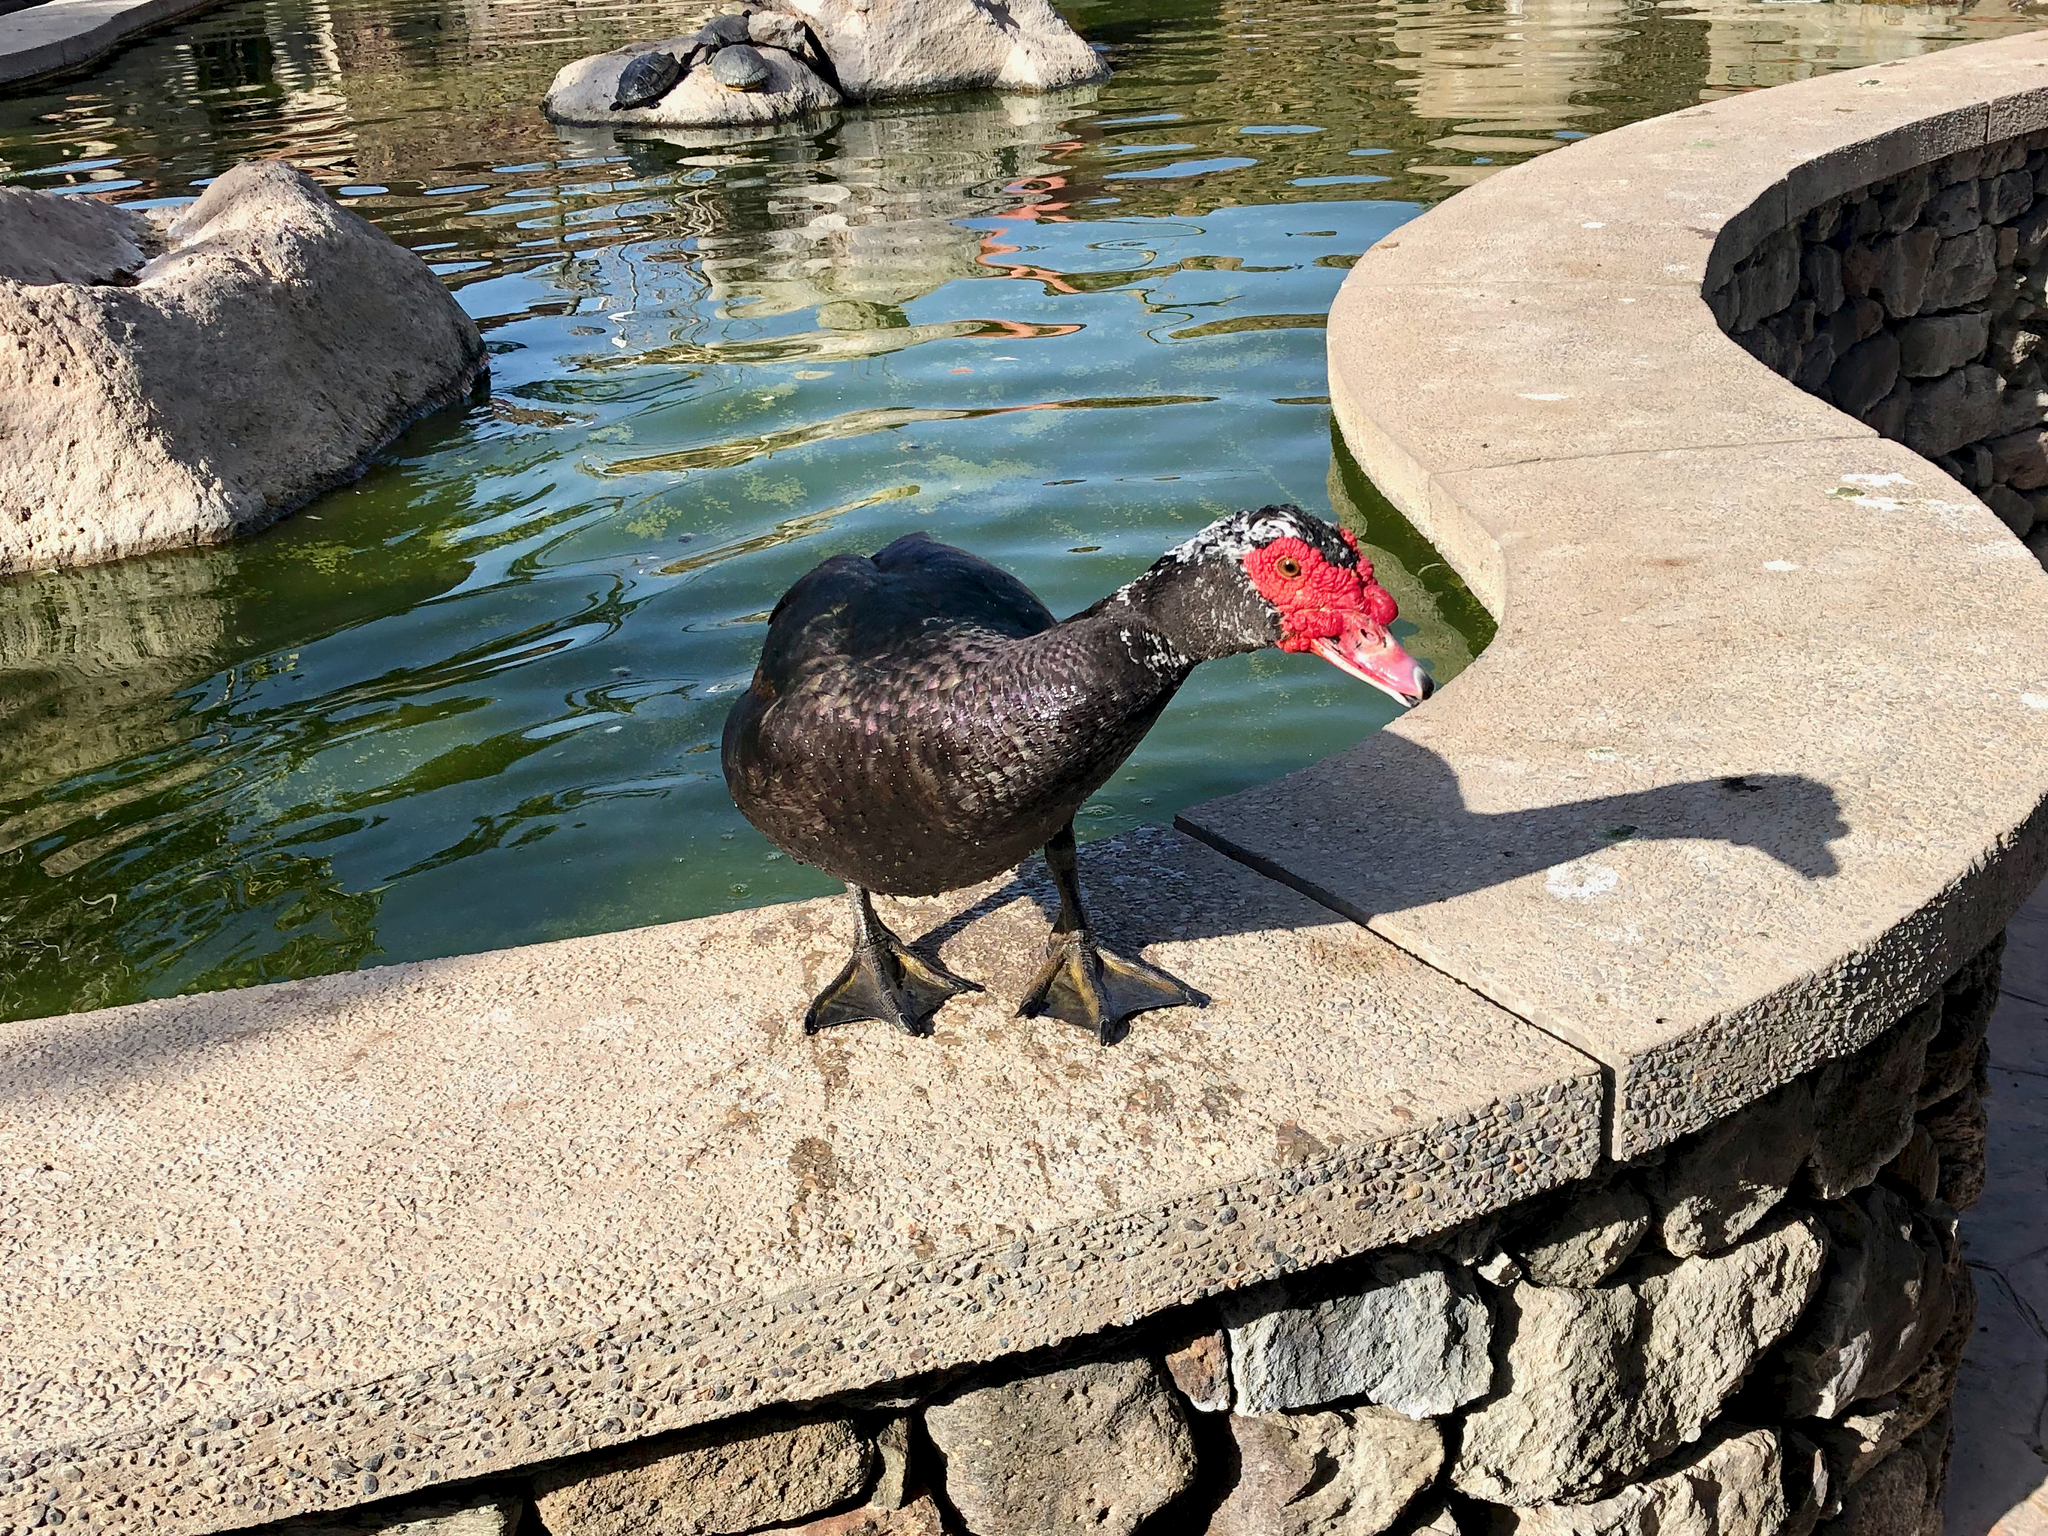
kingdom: Animalia
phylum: Chordata
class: Aves
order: Anseriformes
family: Anatidae
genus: Cairina
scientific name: Cairina moschata
